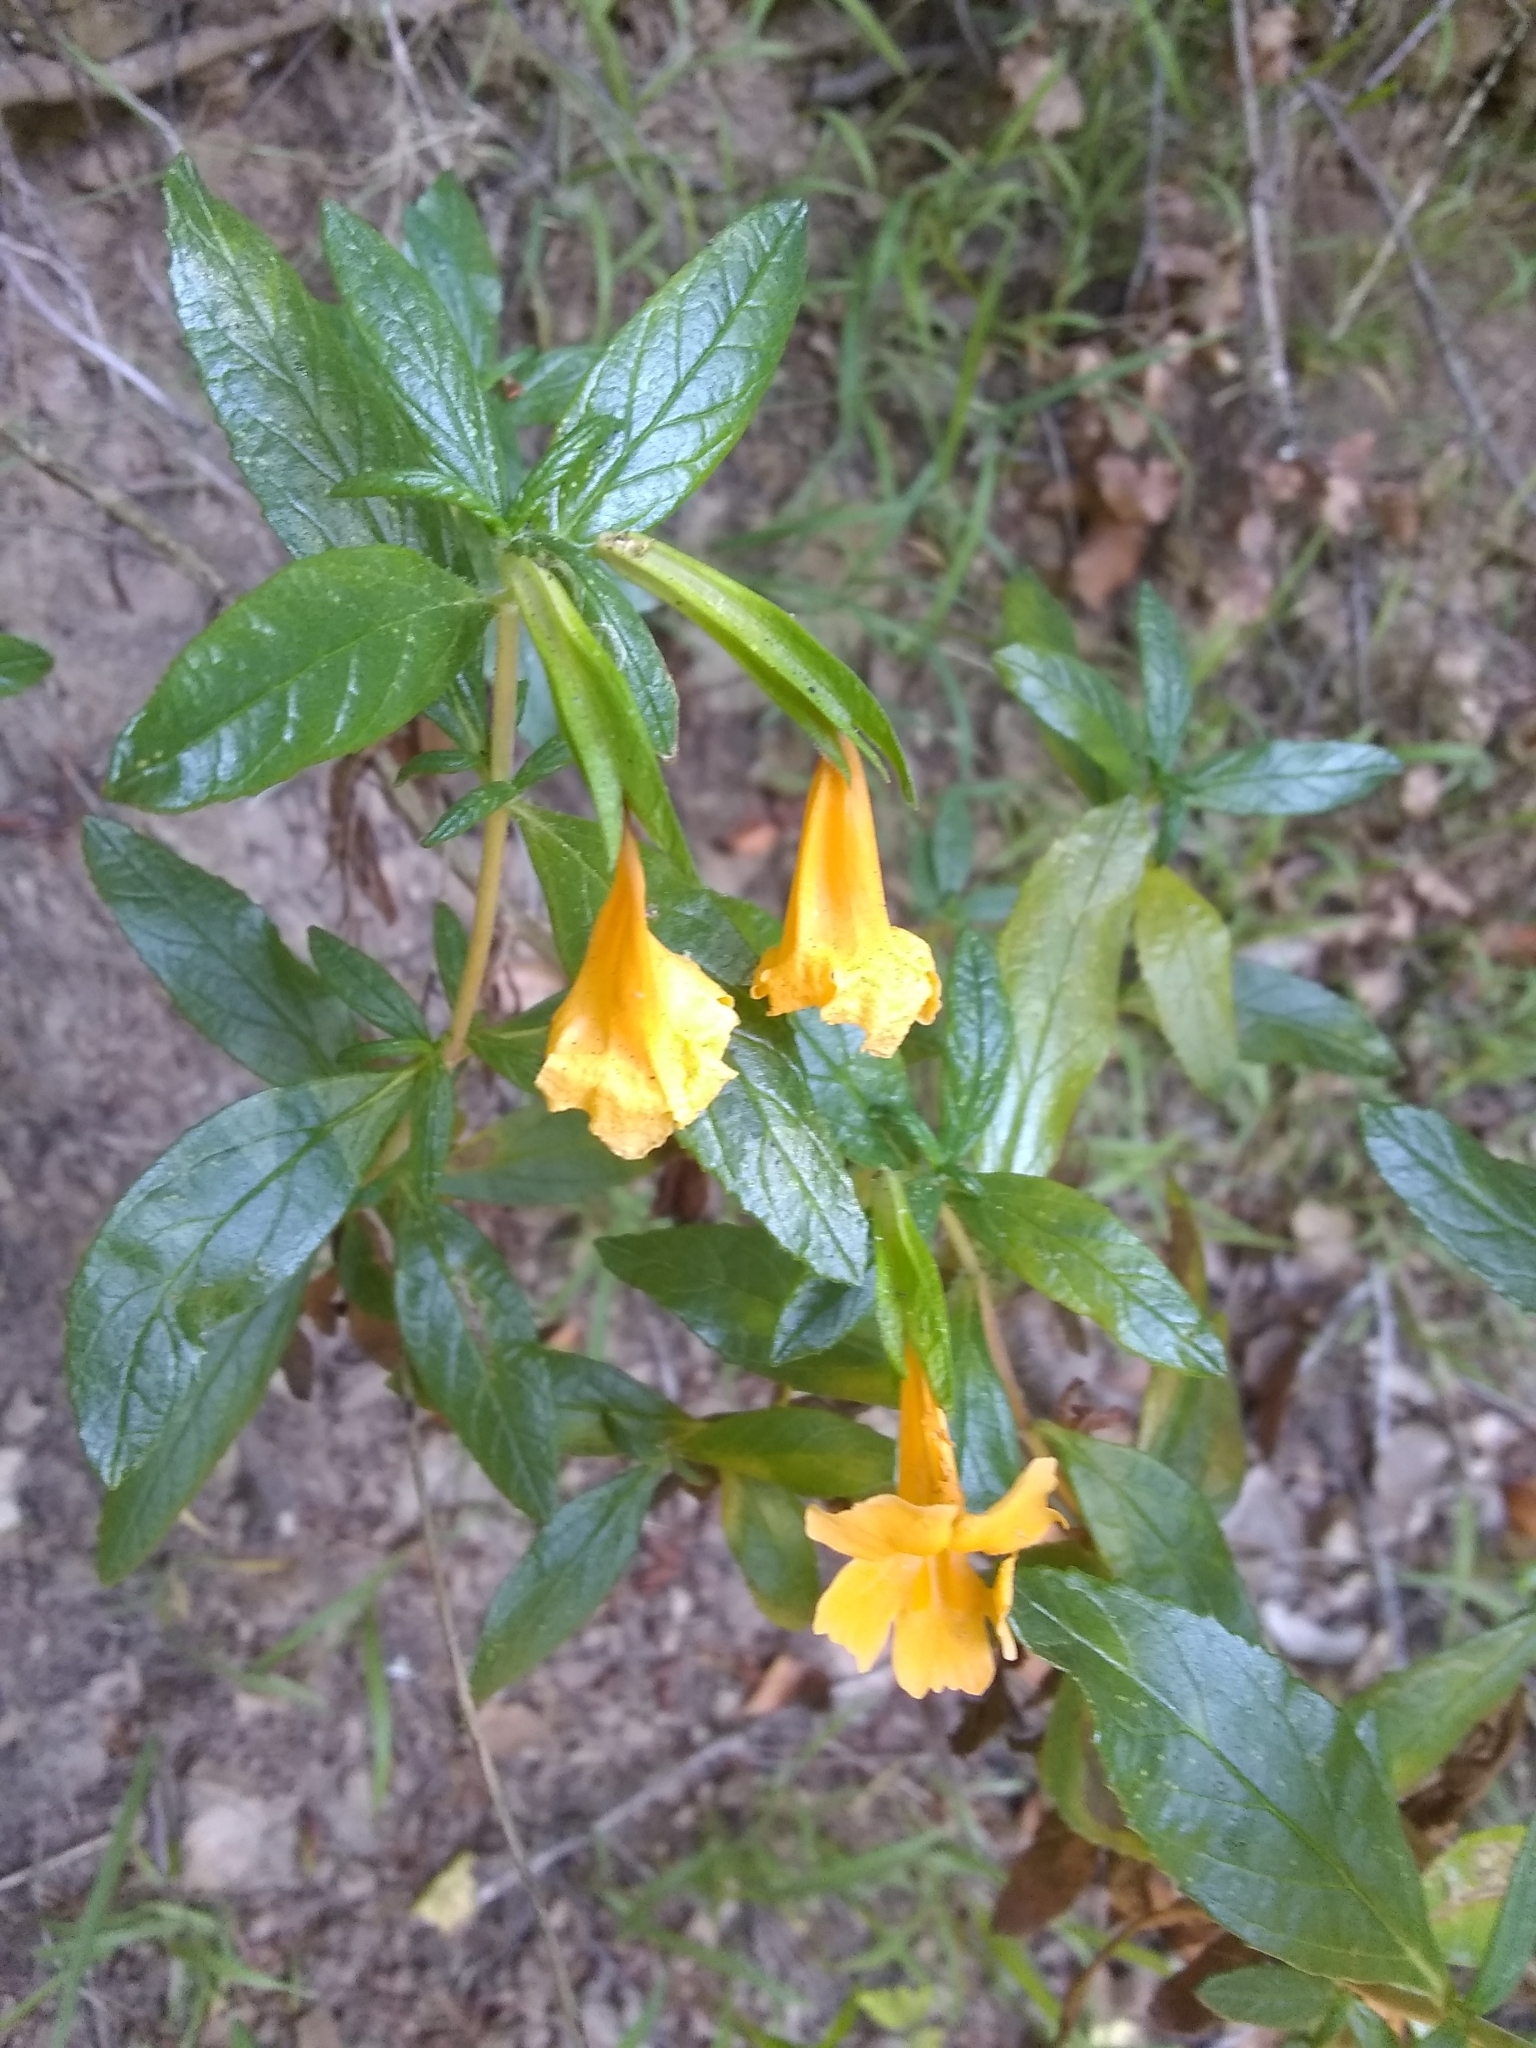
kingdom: Plantae
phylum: Tracheophyta
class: Magnoliopsida
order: Lamiales
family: Phrymaceae
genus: Diplacus
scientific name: Diplacus aurantiacus
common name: Bush monkey-flower
